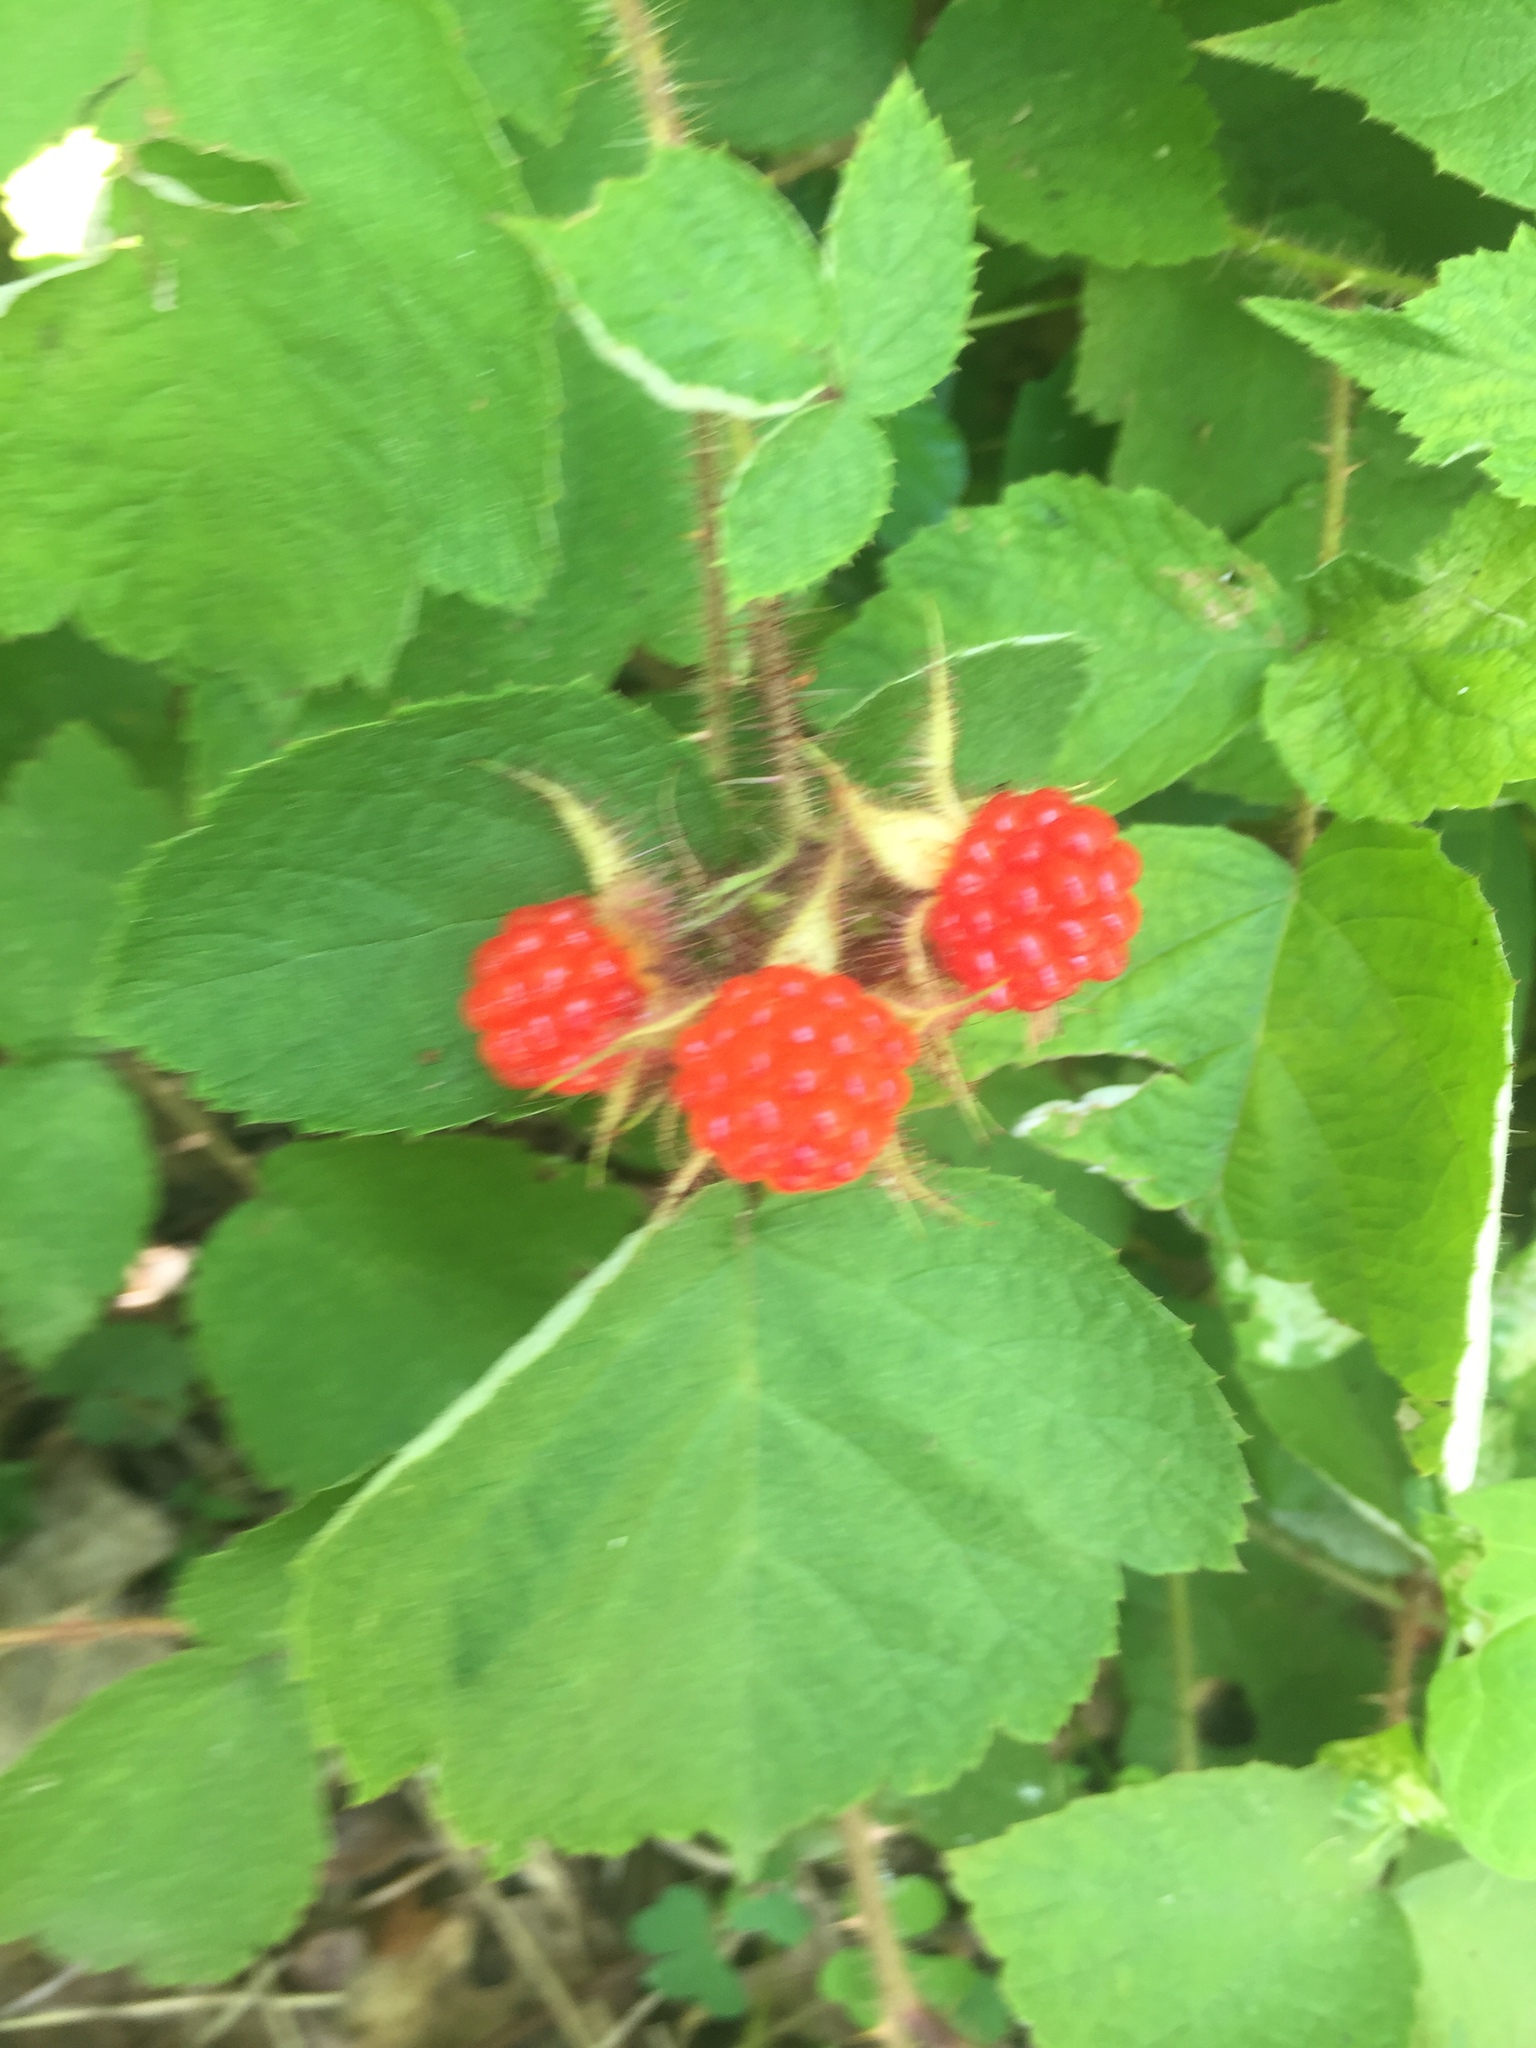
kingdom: Plantae
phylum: Tracheophyta
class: Magnoliopsida
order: Rosales
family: Rosaceae
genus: Rubus
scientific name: Rubus phoenicolasius
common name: Japanese wineberry
